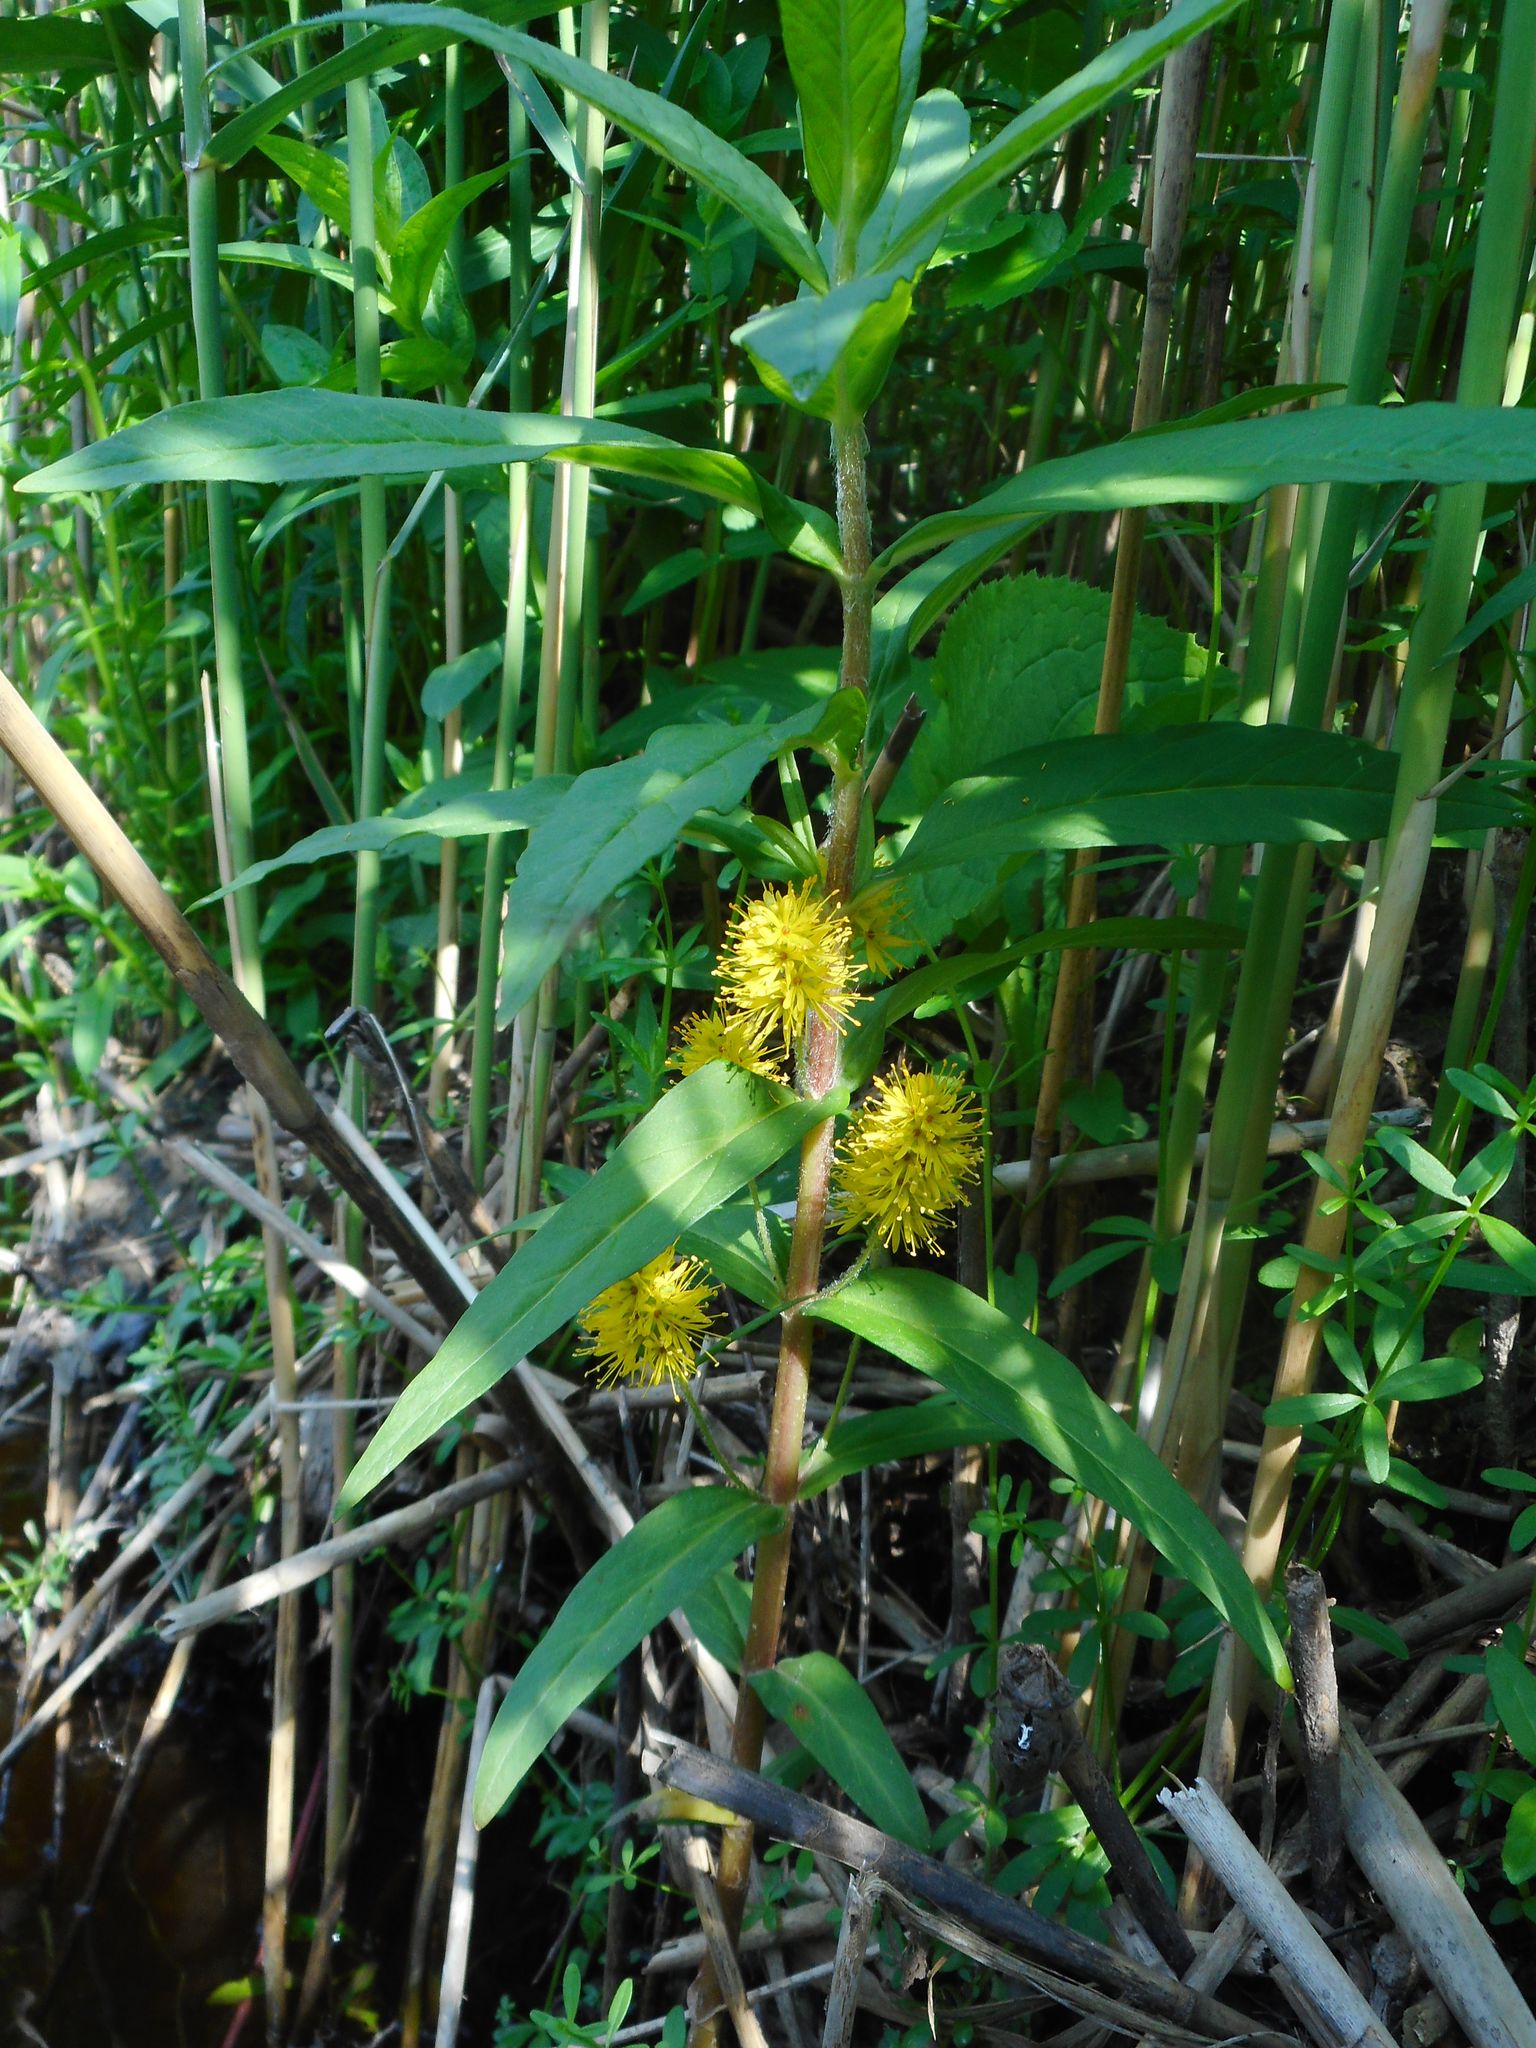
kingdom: Plantae
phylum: Tracheophyta
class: Magnoliopsida
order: Ericales
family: Primulaceae
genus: Lysimachia
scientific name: Lysimachia thyrsiflora
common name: Tufted loosestrife
